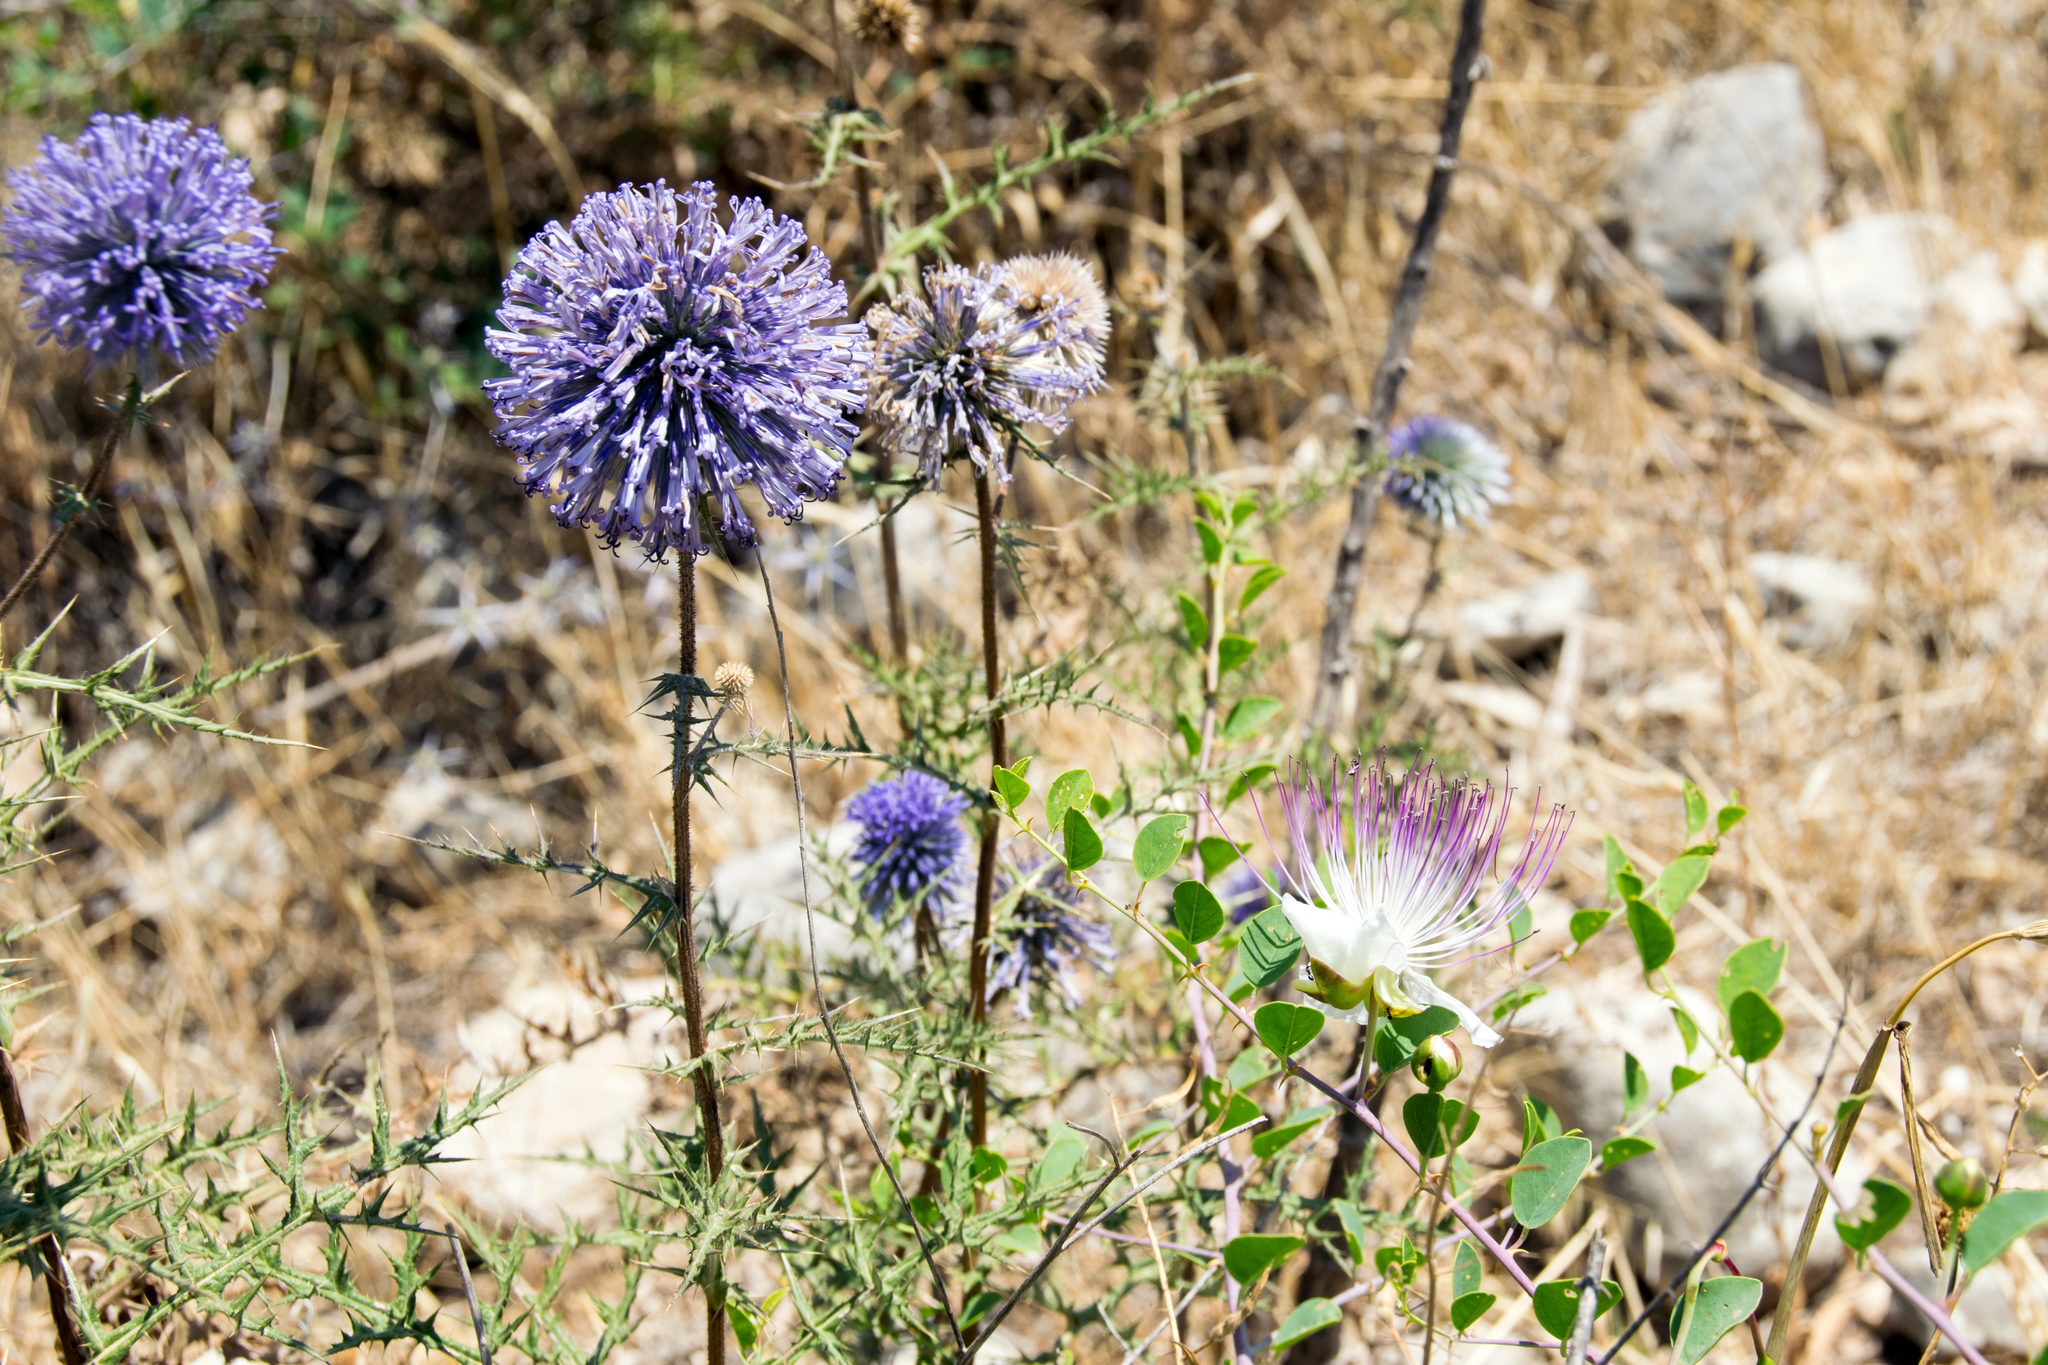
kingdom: Plantae
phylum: Tracheophyta
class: Magnoliopsida
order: Asterales
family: Asteraceae
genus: Echinops
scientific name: Echinops adenocaulos
